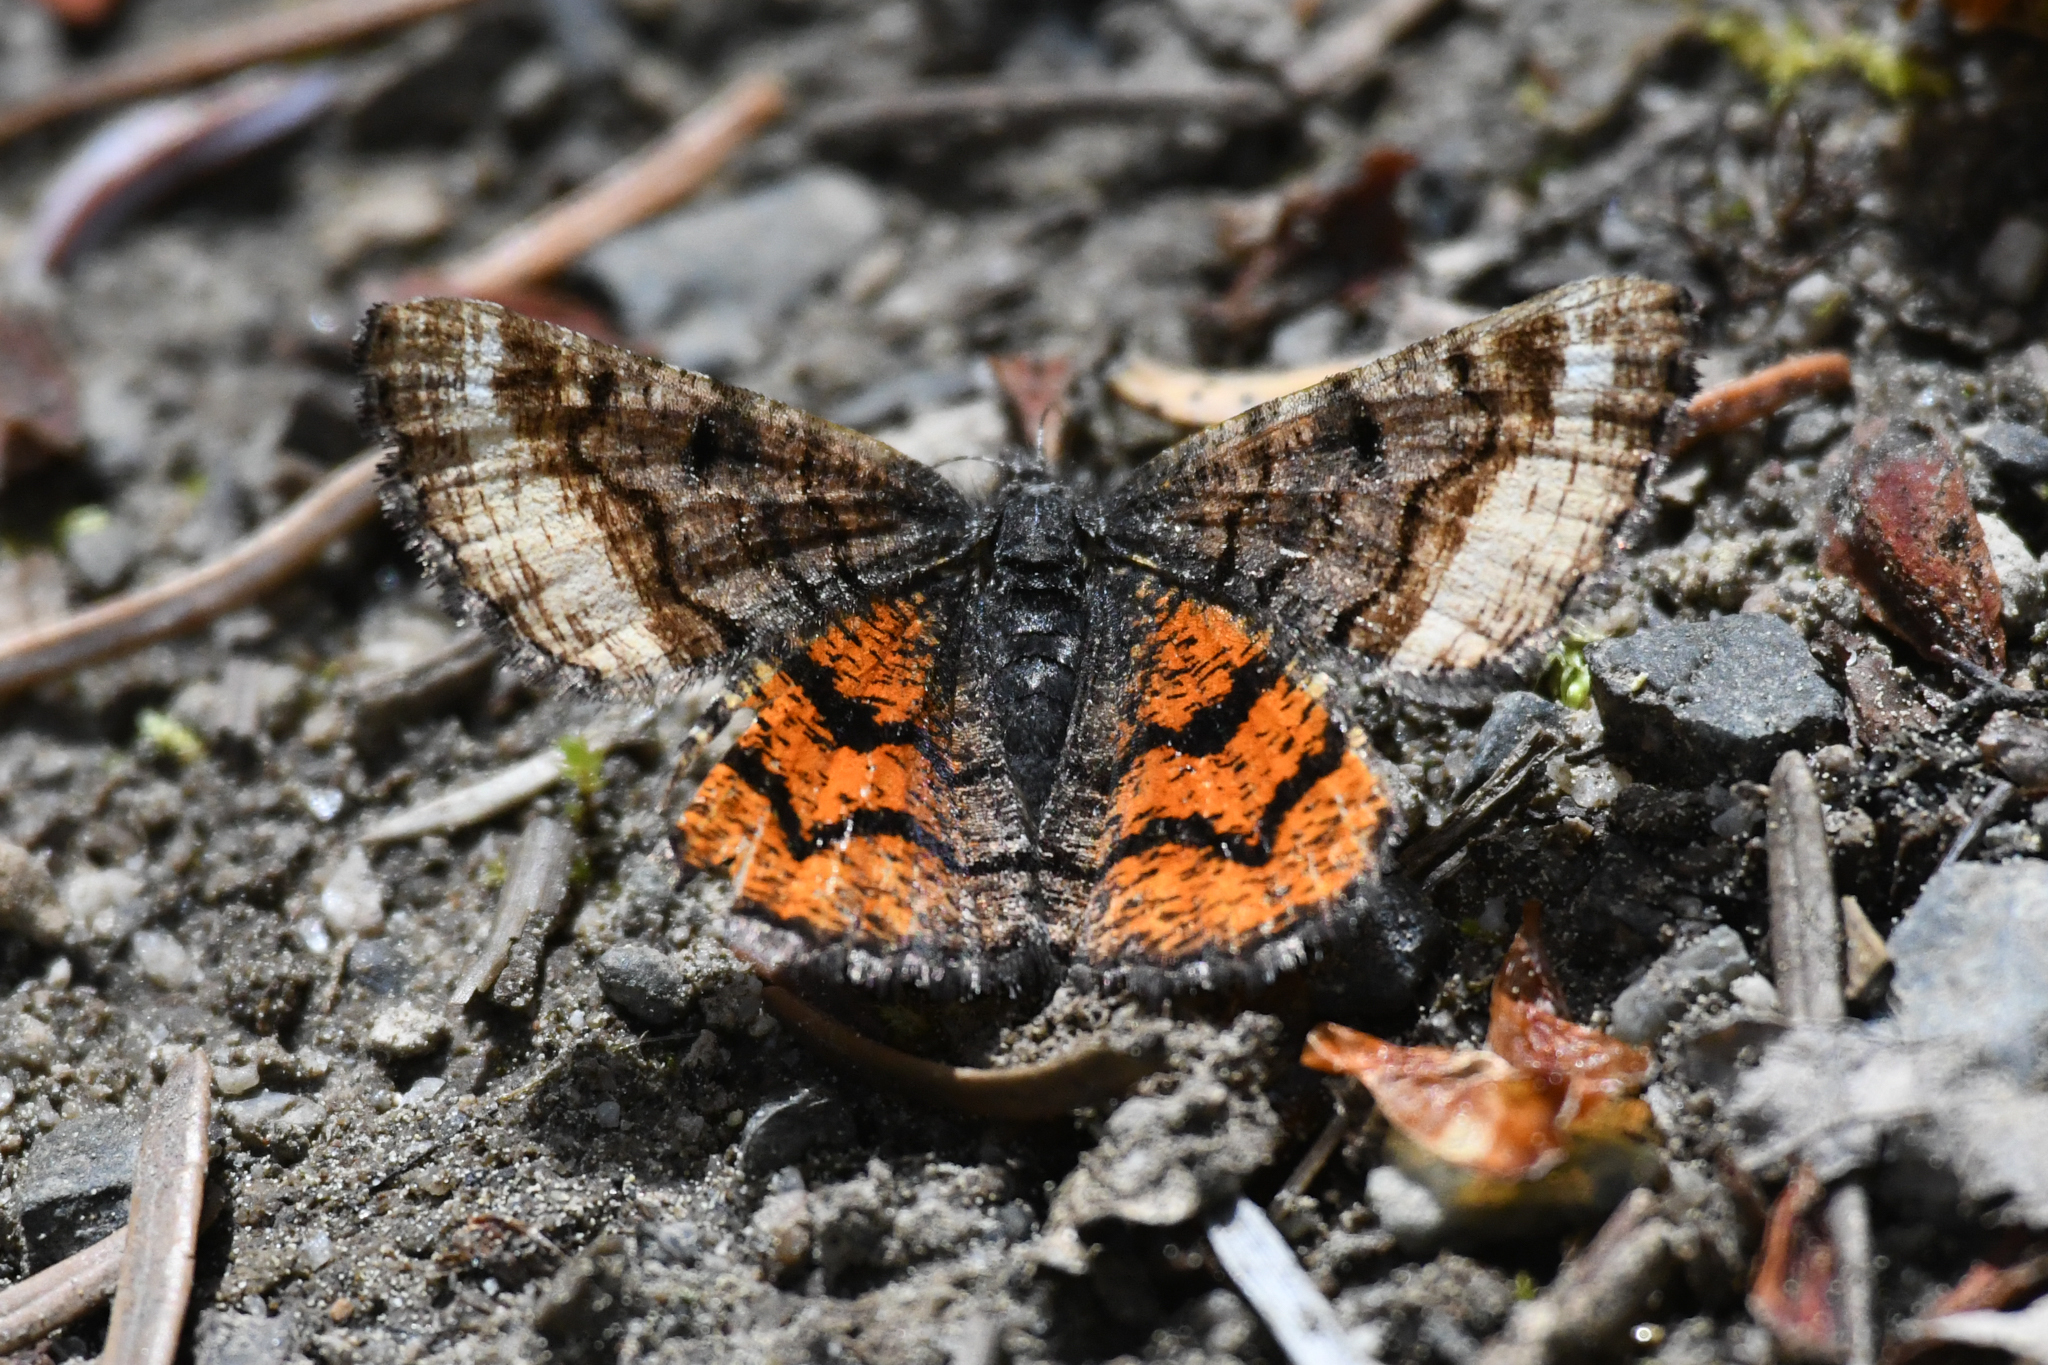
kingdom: Animalia
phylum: Arthropoda
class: Insecta
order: Lepidoptera
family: Geometridae
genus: Dasyfidonia
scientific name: Dasyfidonia avuncularia
